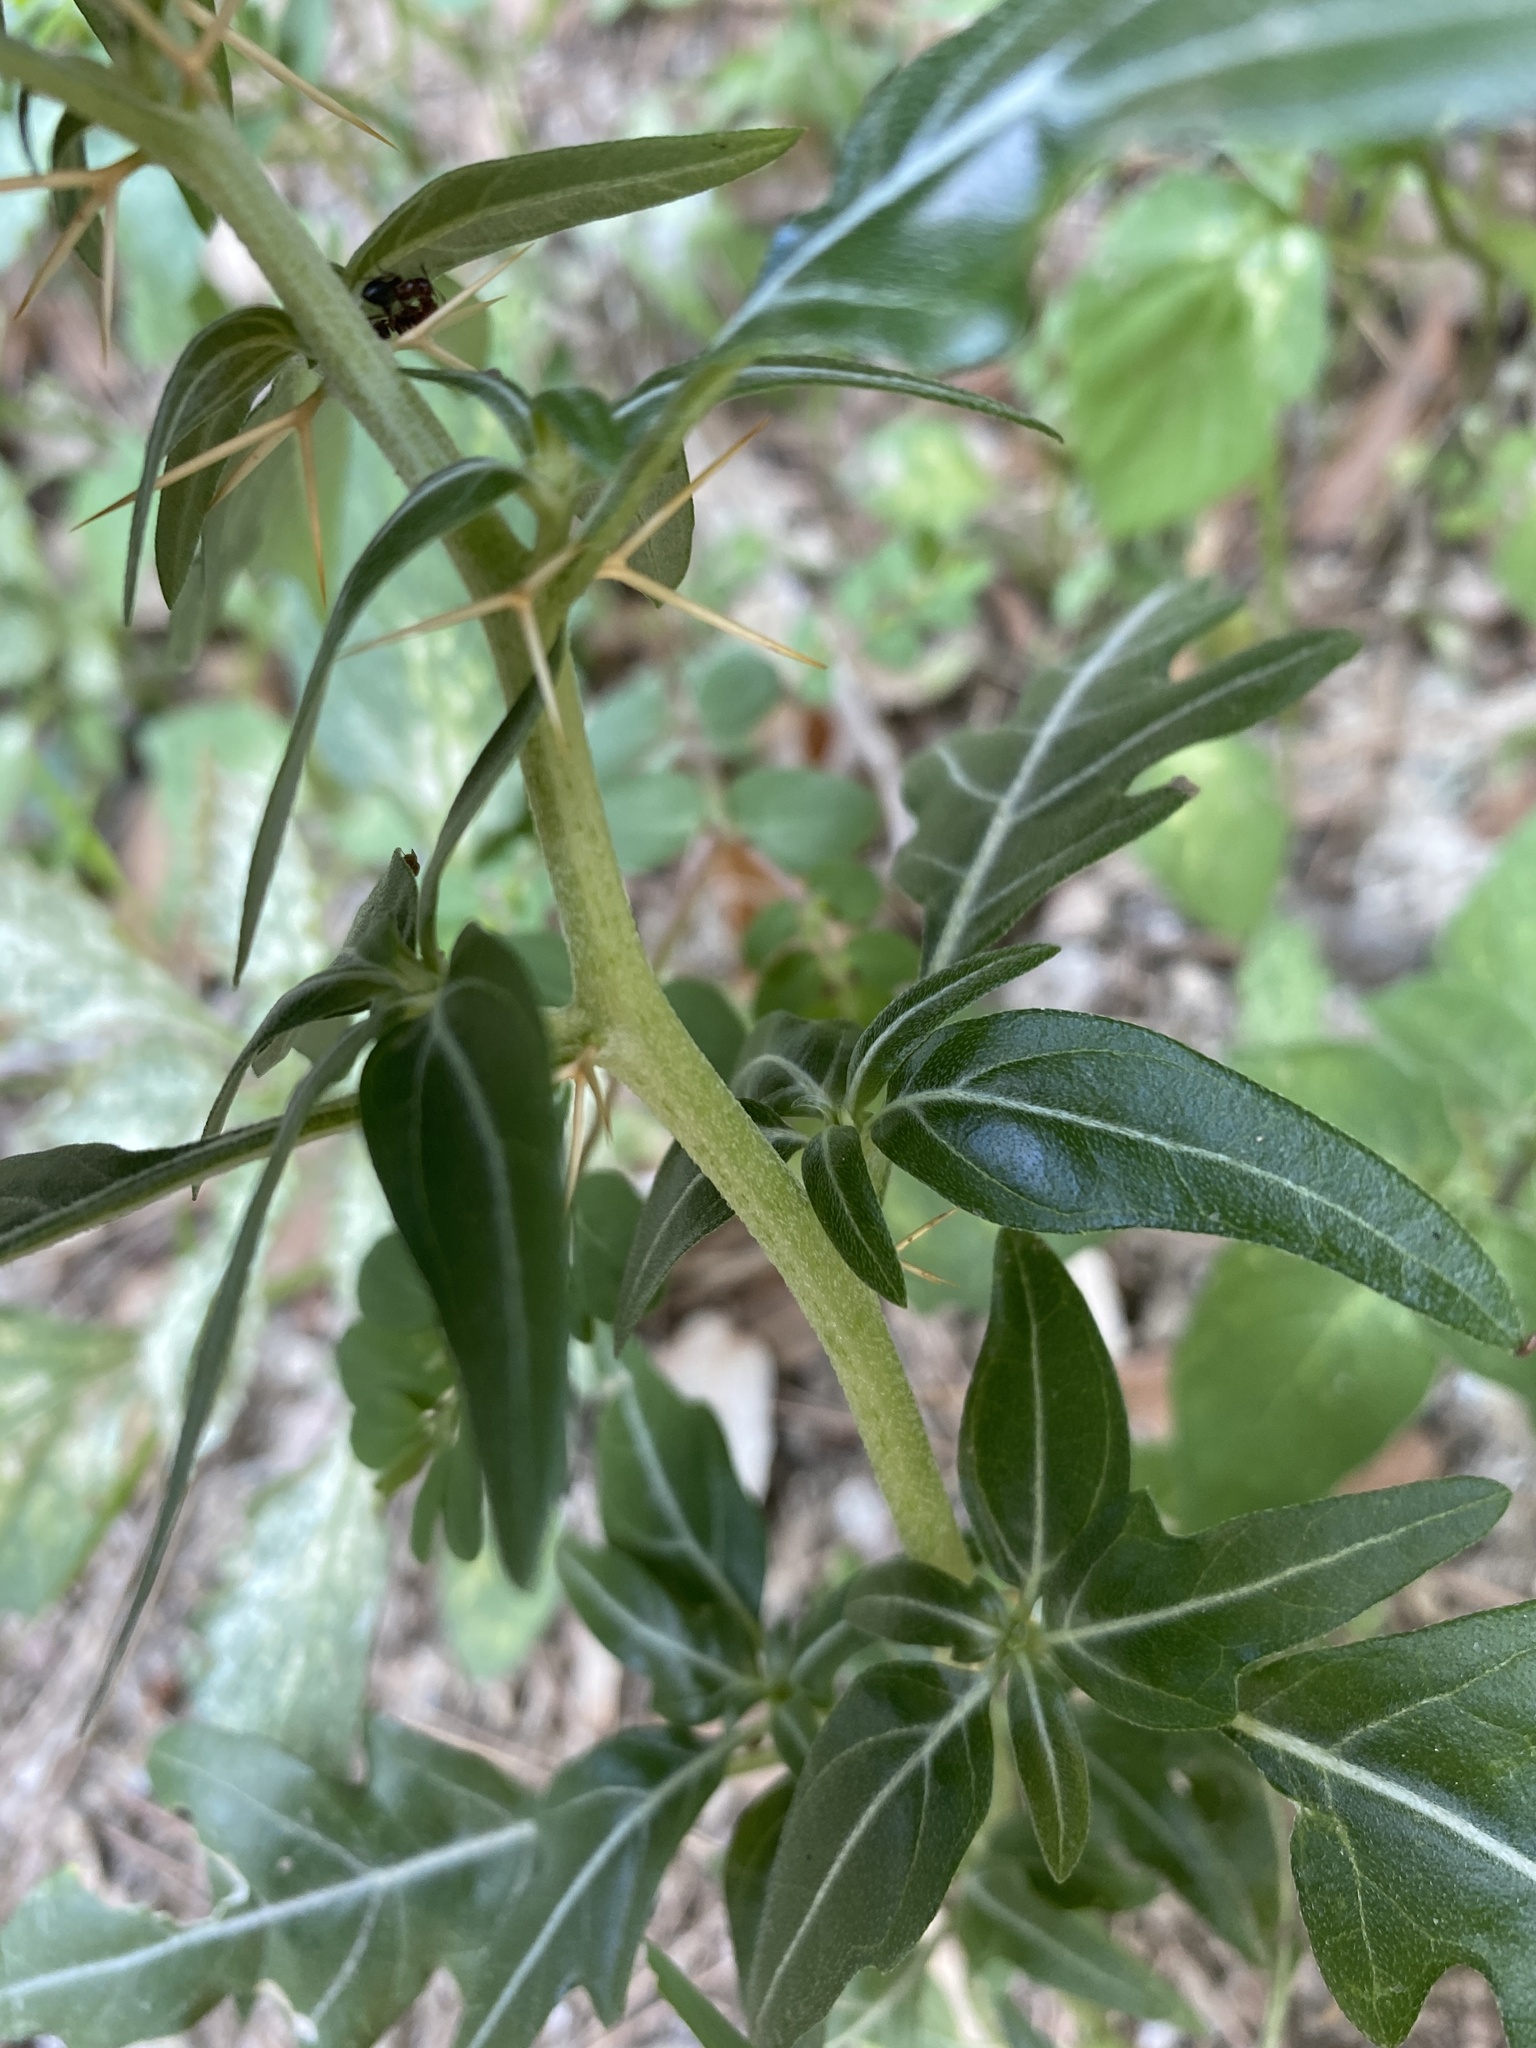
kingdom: Plantae
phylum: Tracheophyta
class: Magnoliopsida
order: Asterales
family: Asteraceae
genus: Xanthium
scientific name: Xanthium spinosum
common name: Spiny cocklebur
